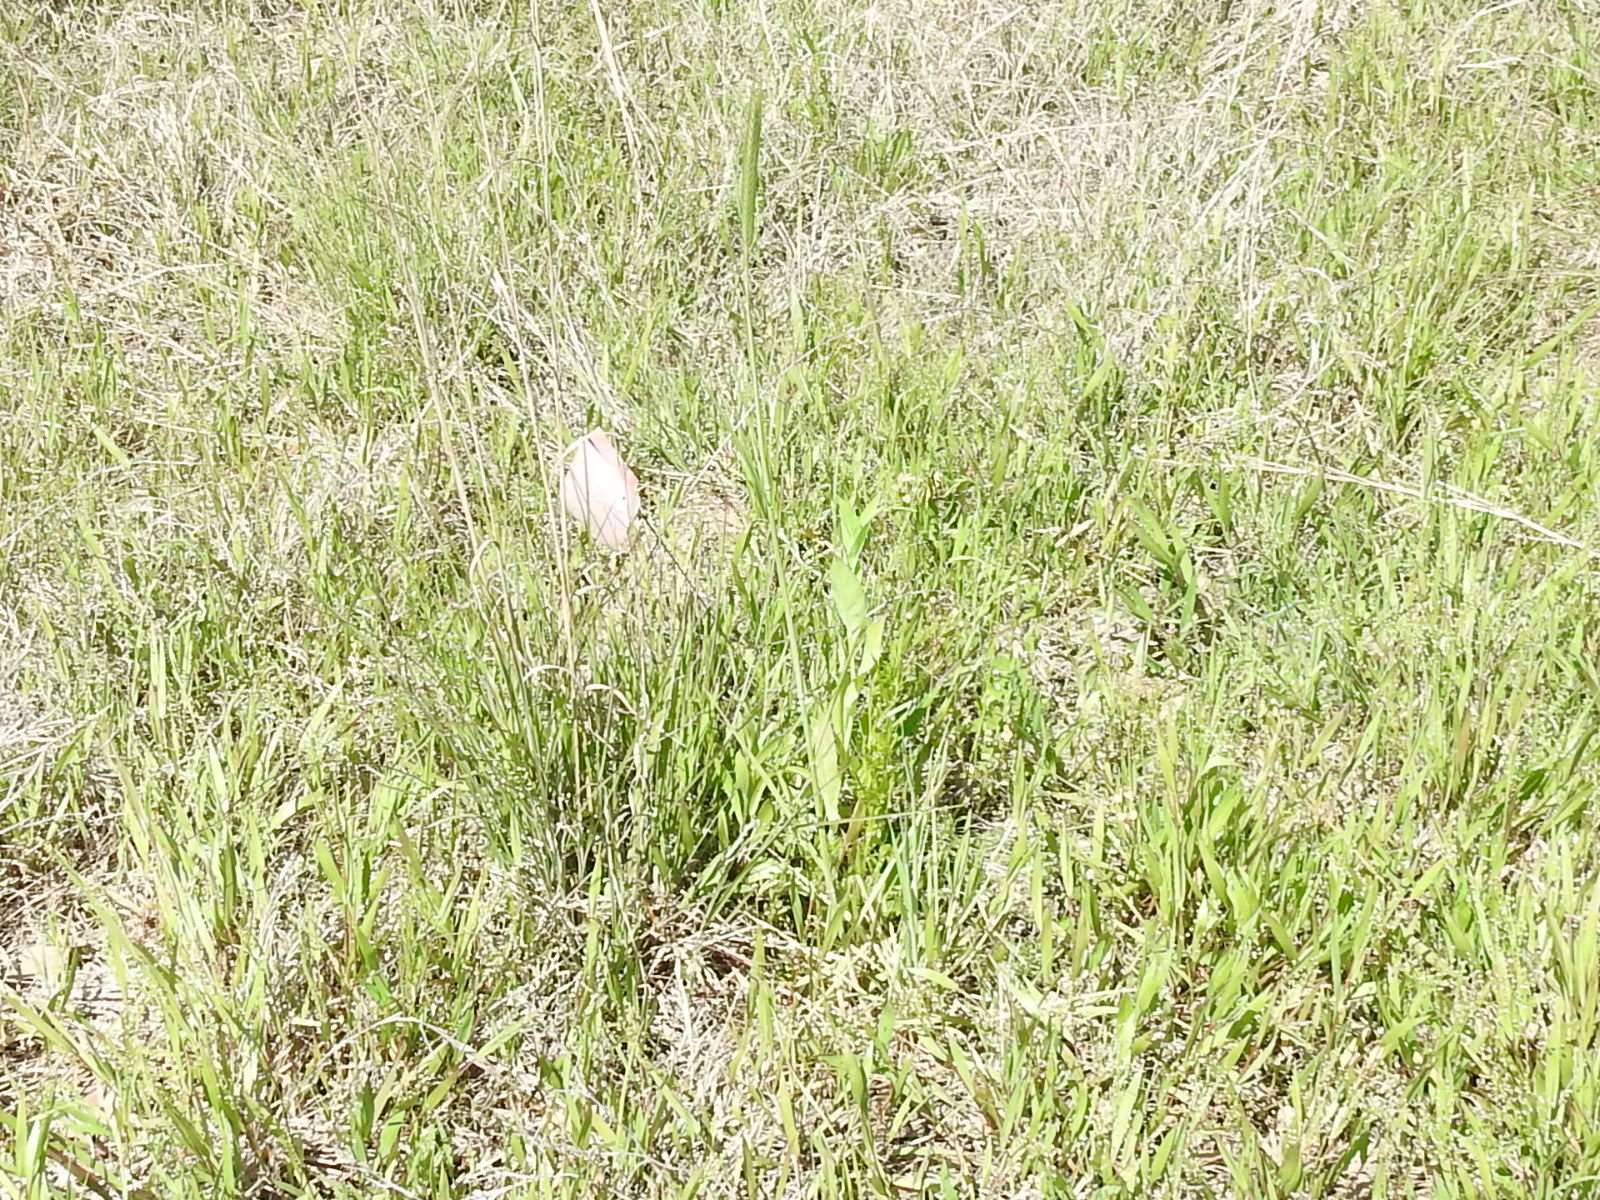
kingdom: Plantae
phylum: Tracheophyta
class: Liliopsida
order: Poales
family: Poaceae
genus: Secale
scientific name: Secale cereale
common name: Rye
